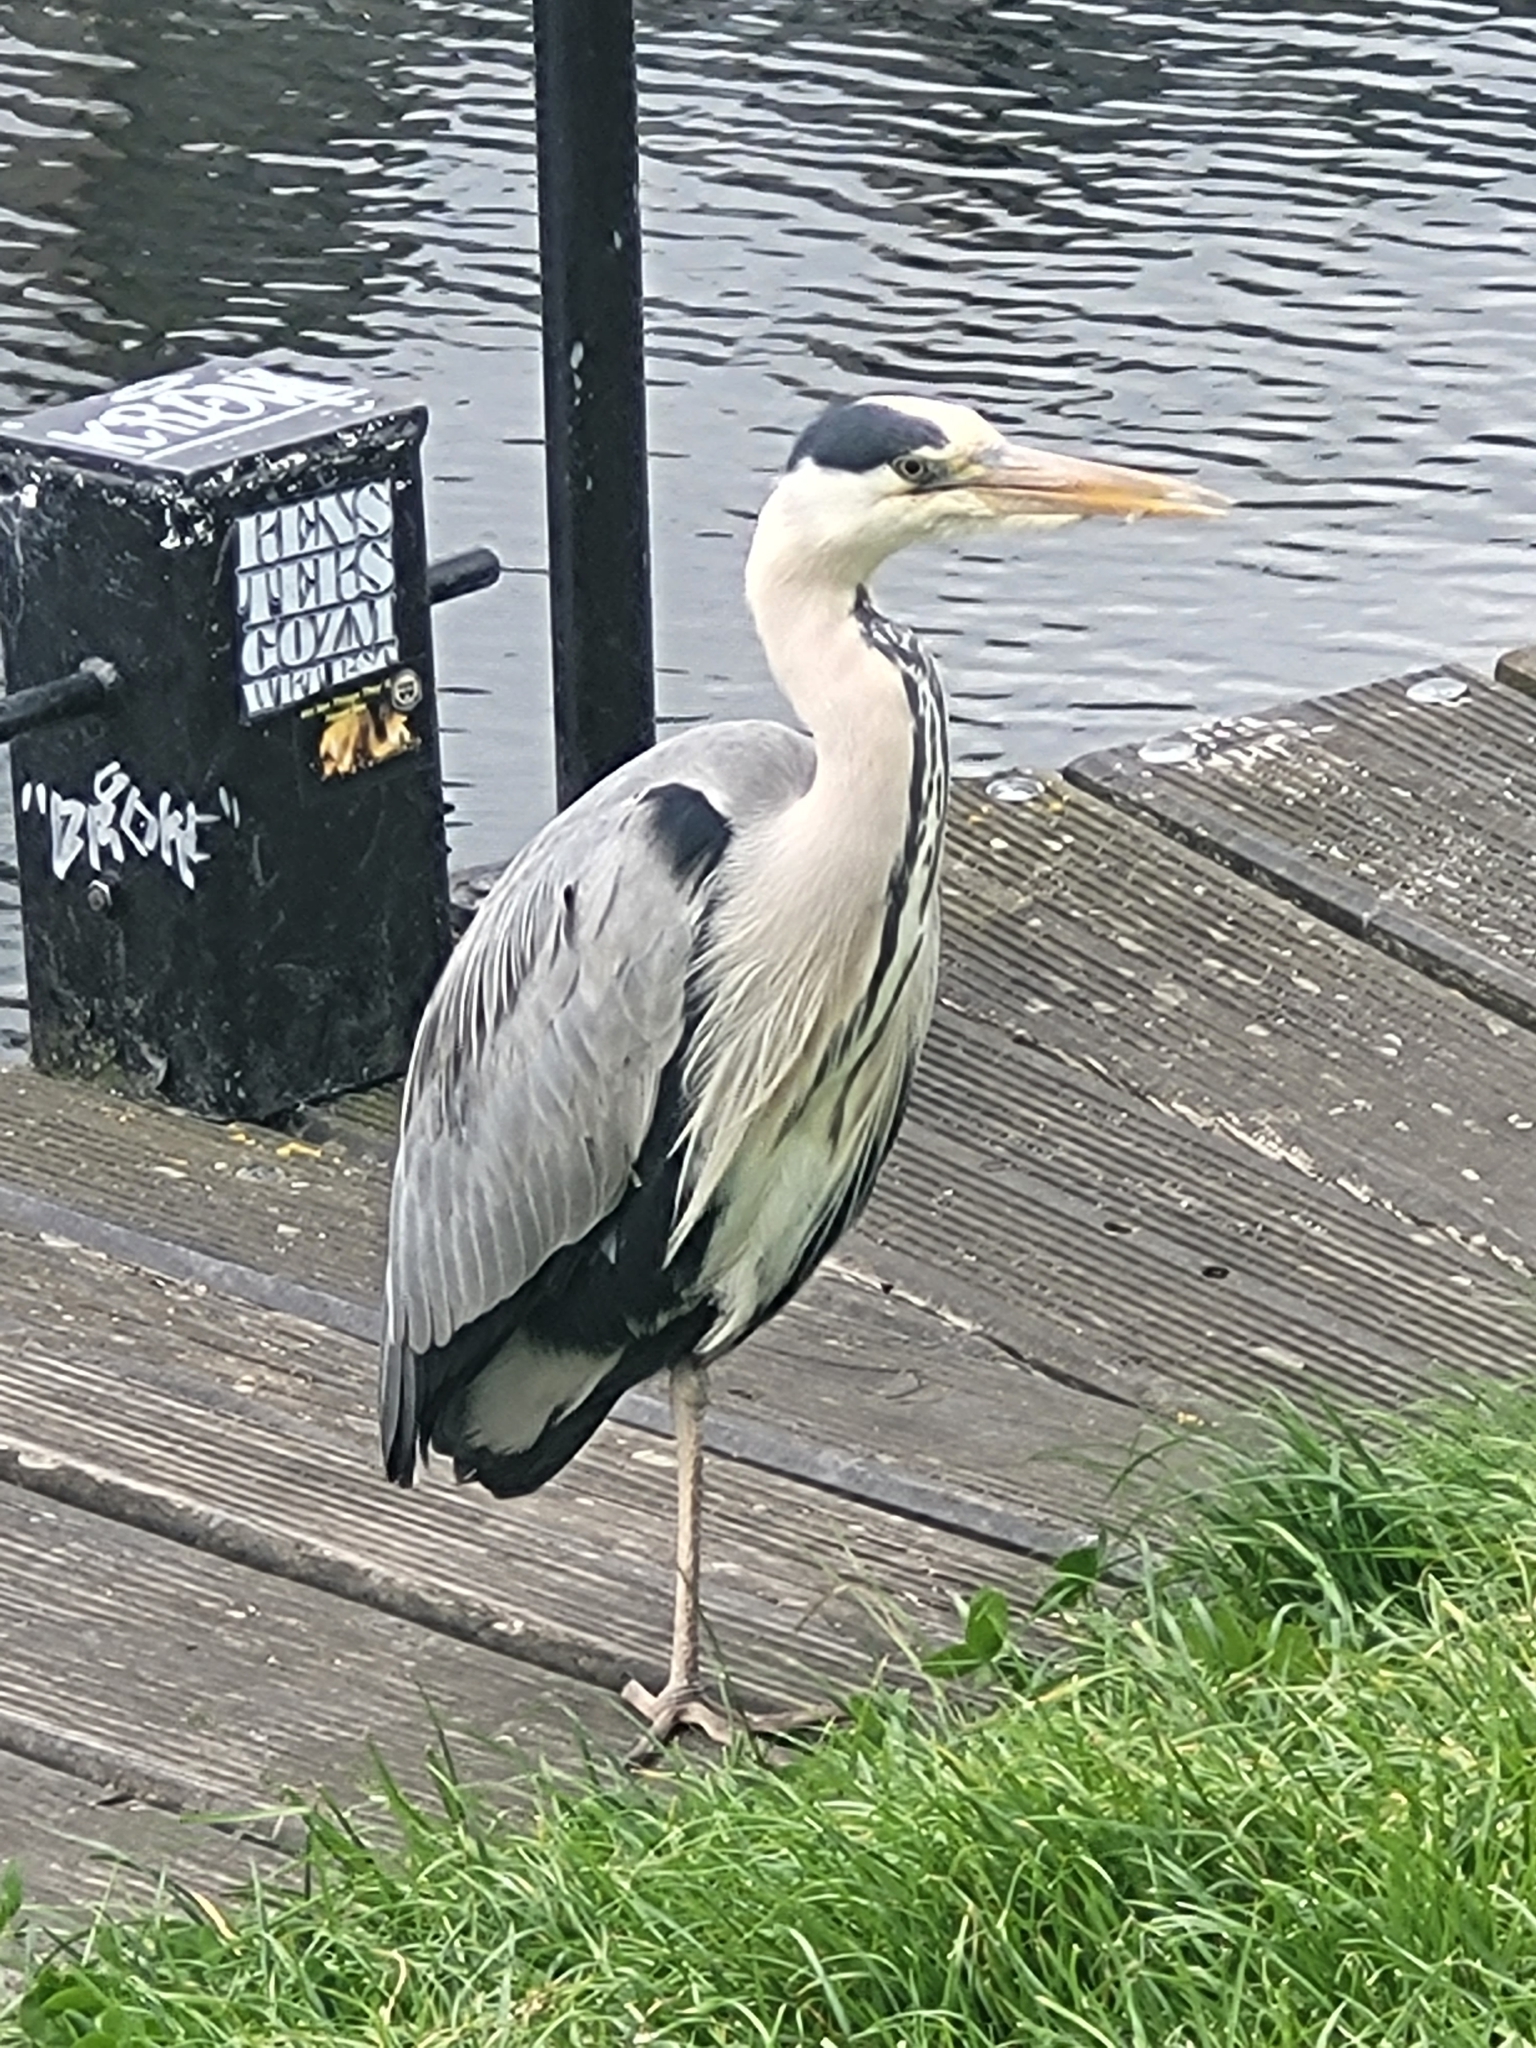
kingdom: Animalia
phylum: Chordata
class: Aves
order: Pelecaniformes
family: Ardeidae
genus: Ardea
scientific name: Ardea cinerea
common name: Grey heron
